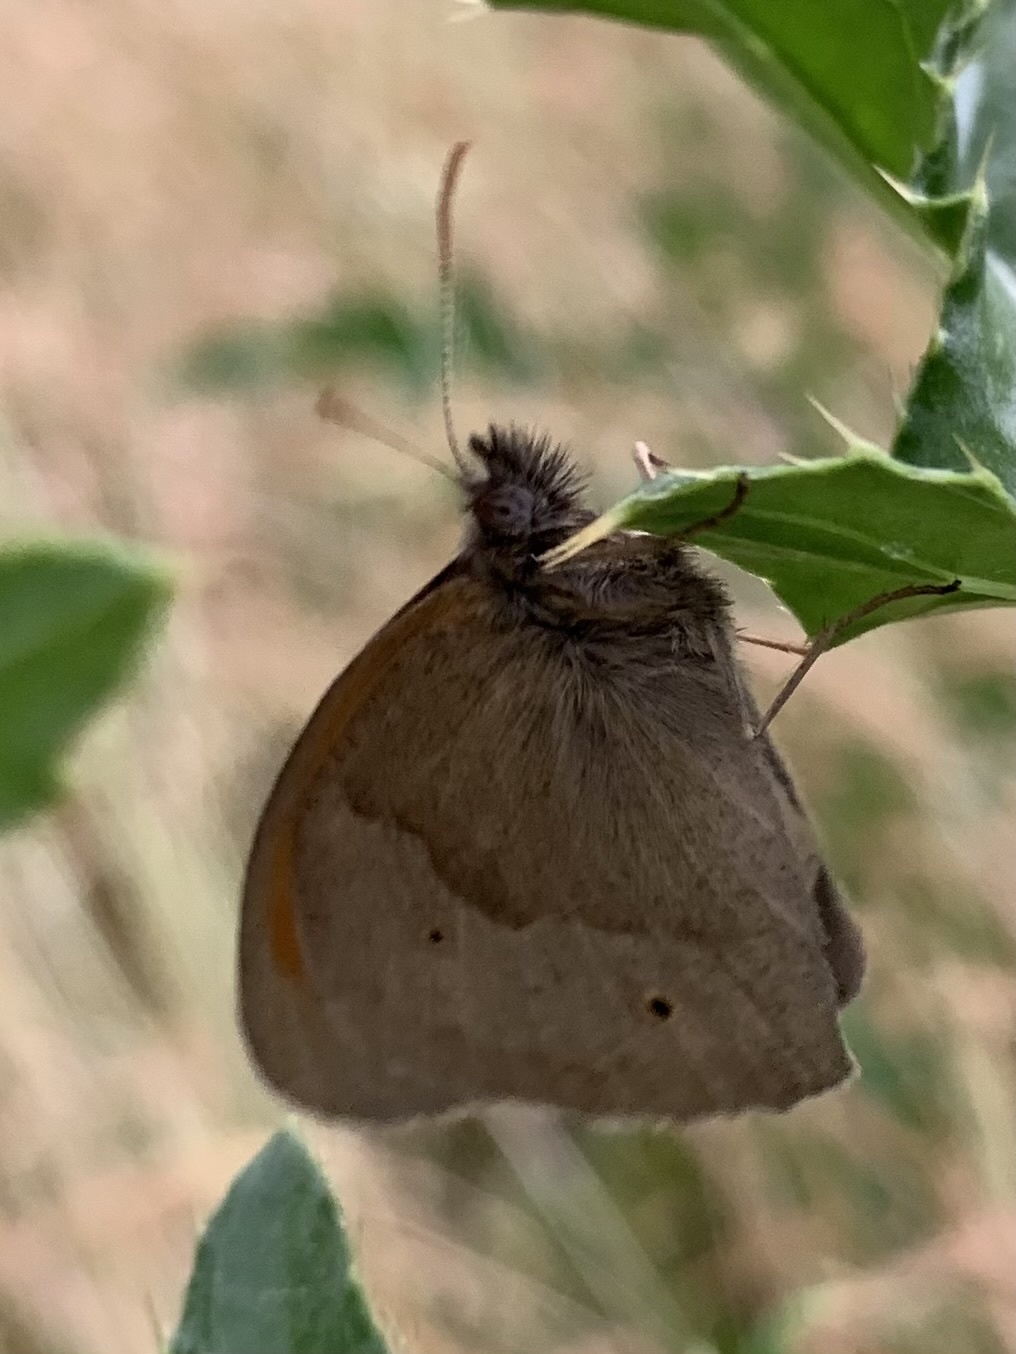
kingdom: Animalia
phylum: Arthropoda
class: Insecta
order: Lepidoptera
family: Nymphalidae
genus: Maniola
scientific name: Maniola jurtina
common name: Meadow brown
